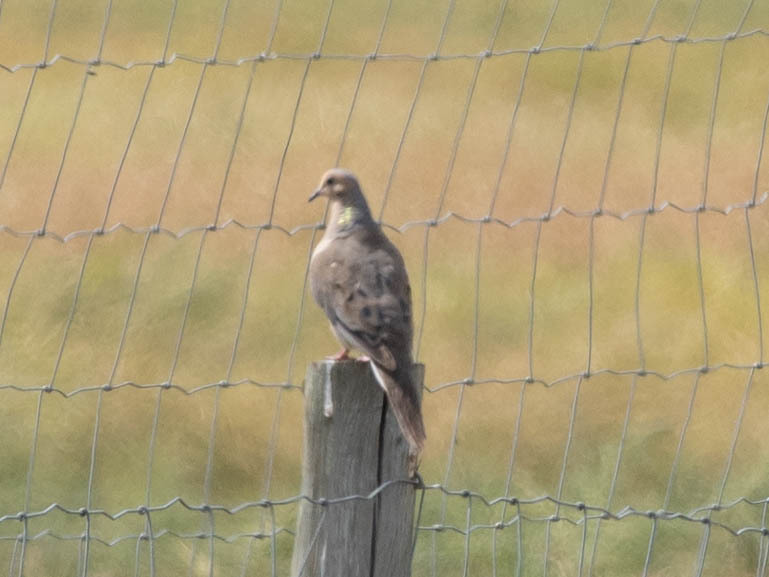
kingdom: Animalia
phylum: Chordata
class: Aves
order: Columbiformes
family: Columbidae
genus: Zenaida
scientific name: Zenaida macroura
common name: Mourning dove
